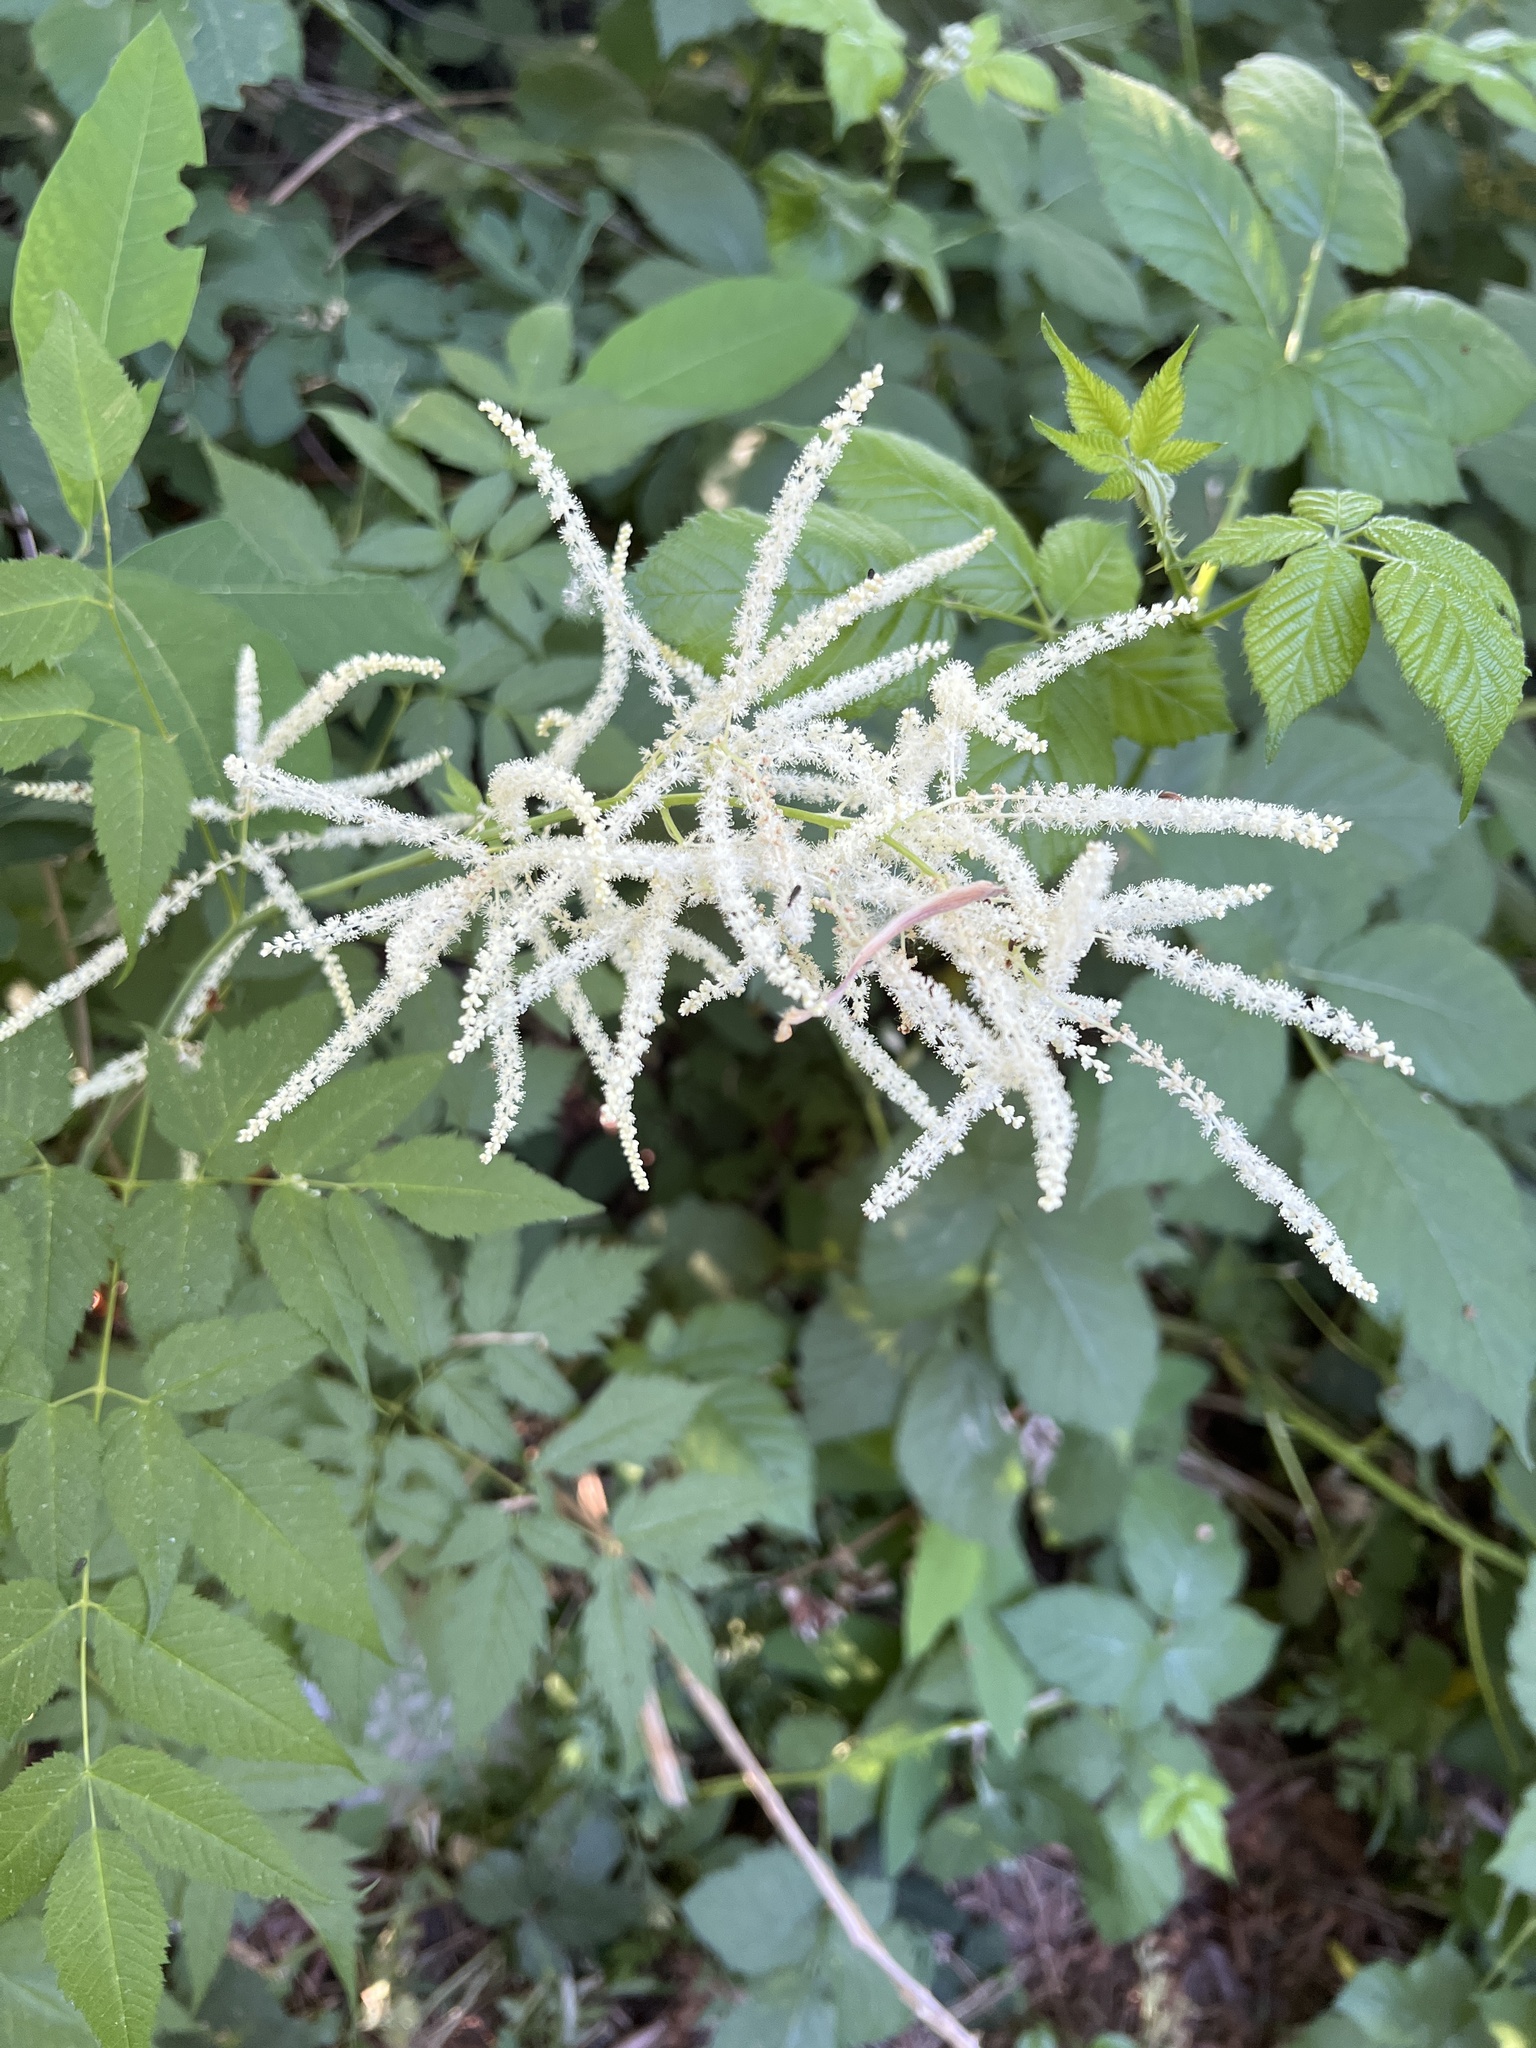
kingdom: Plantae
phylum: Tracheophyta
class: Magnoliopsida
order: Rosales
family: Rosaceae
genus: Aruncus
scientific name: Aruncus dioicus
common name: Buck's-beard
